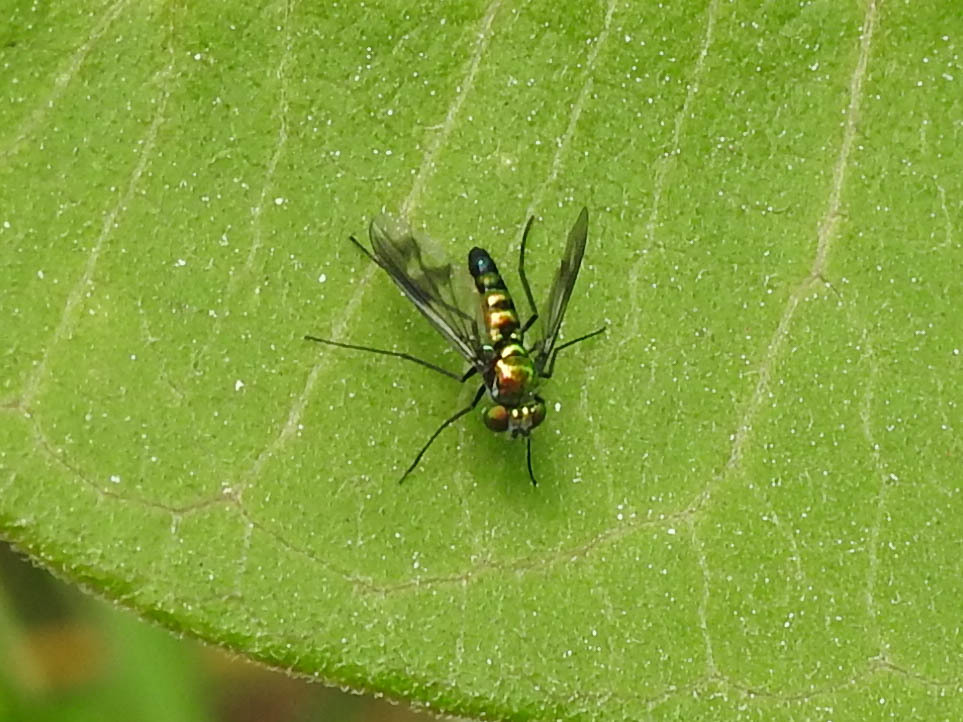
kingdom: Animalia
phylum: Arthropoda
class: Insecta
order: Diptera
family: Dolichopodidae
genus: Condylostylus
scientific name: Condylostylus patibulatus
